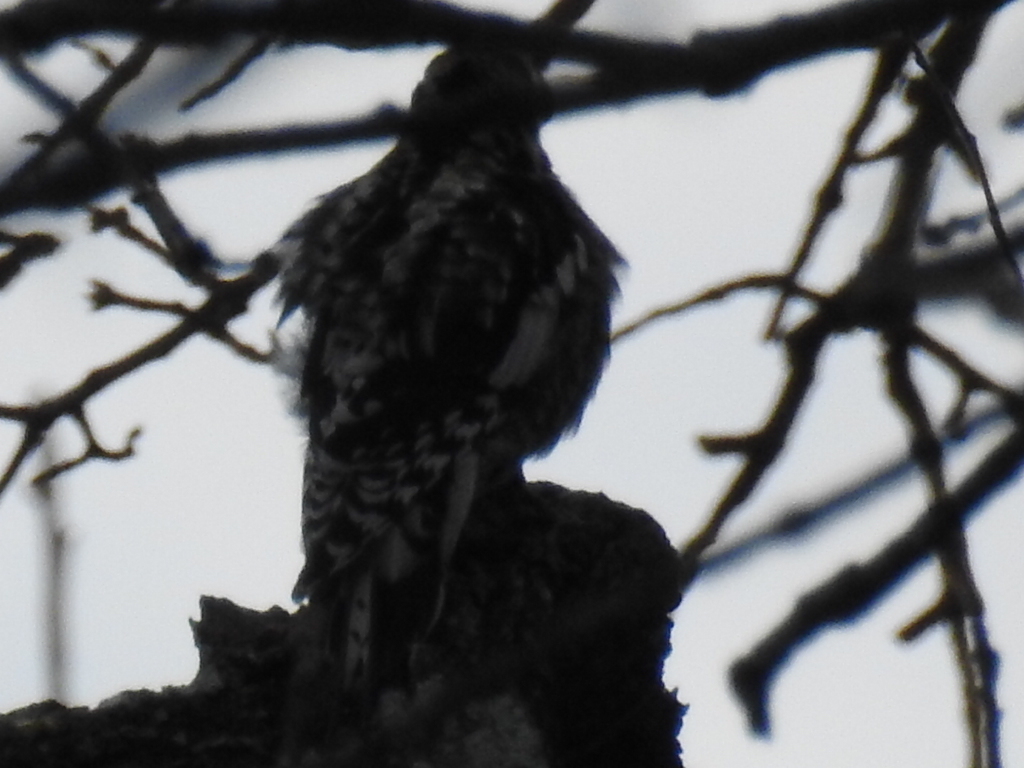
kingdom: Animalia
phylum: Chordata
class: Aves
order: Piciformes
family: Picidae
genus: Sphyrapicus
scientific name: Sphyrapicus varius
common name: Yellow-bellied sapsucker
